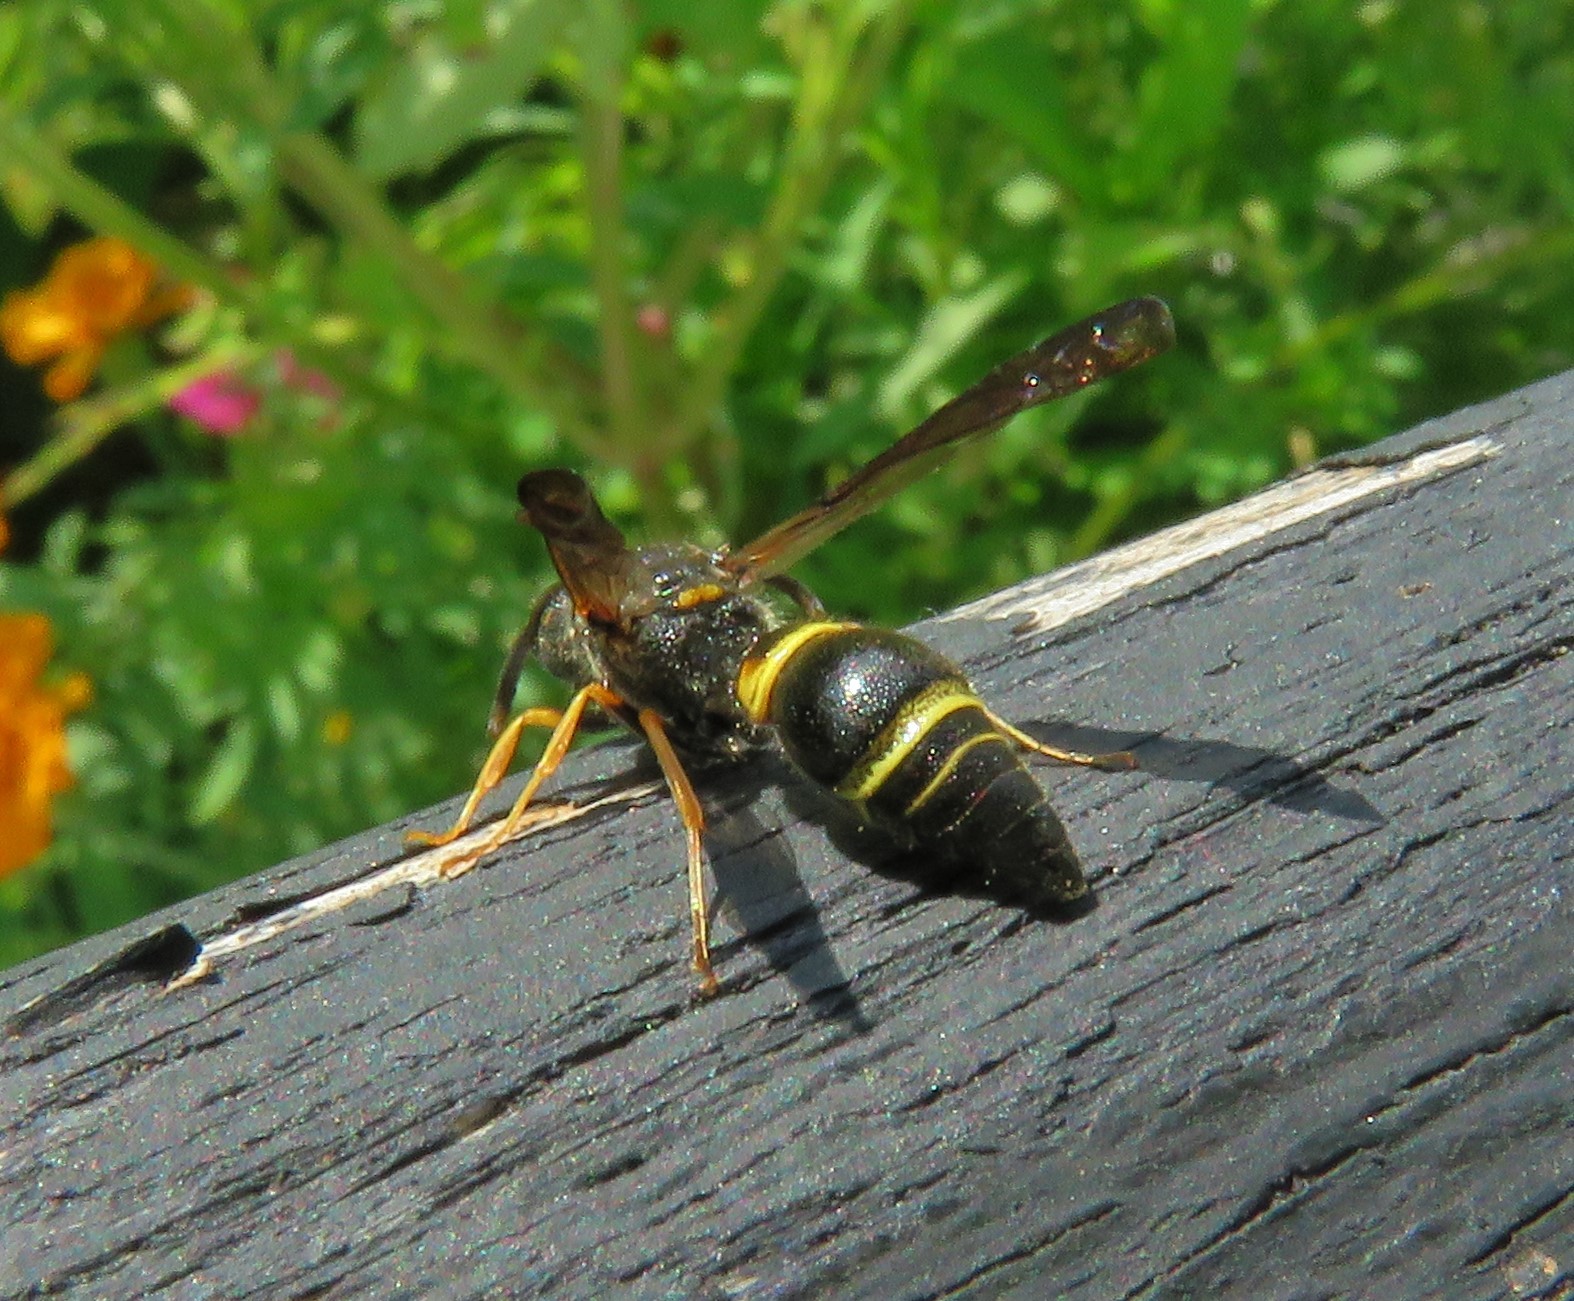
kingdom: Animalia
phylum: Arthropoda
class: Insecta
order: Hymenoptera
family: Vespidae
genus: Ancistrocerus
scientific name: Ancistrocerus unifasciatus
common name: One-banded mason wasp
